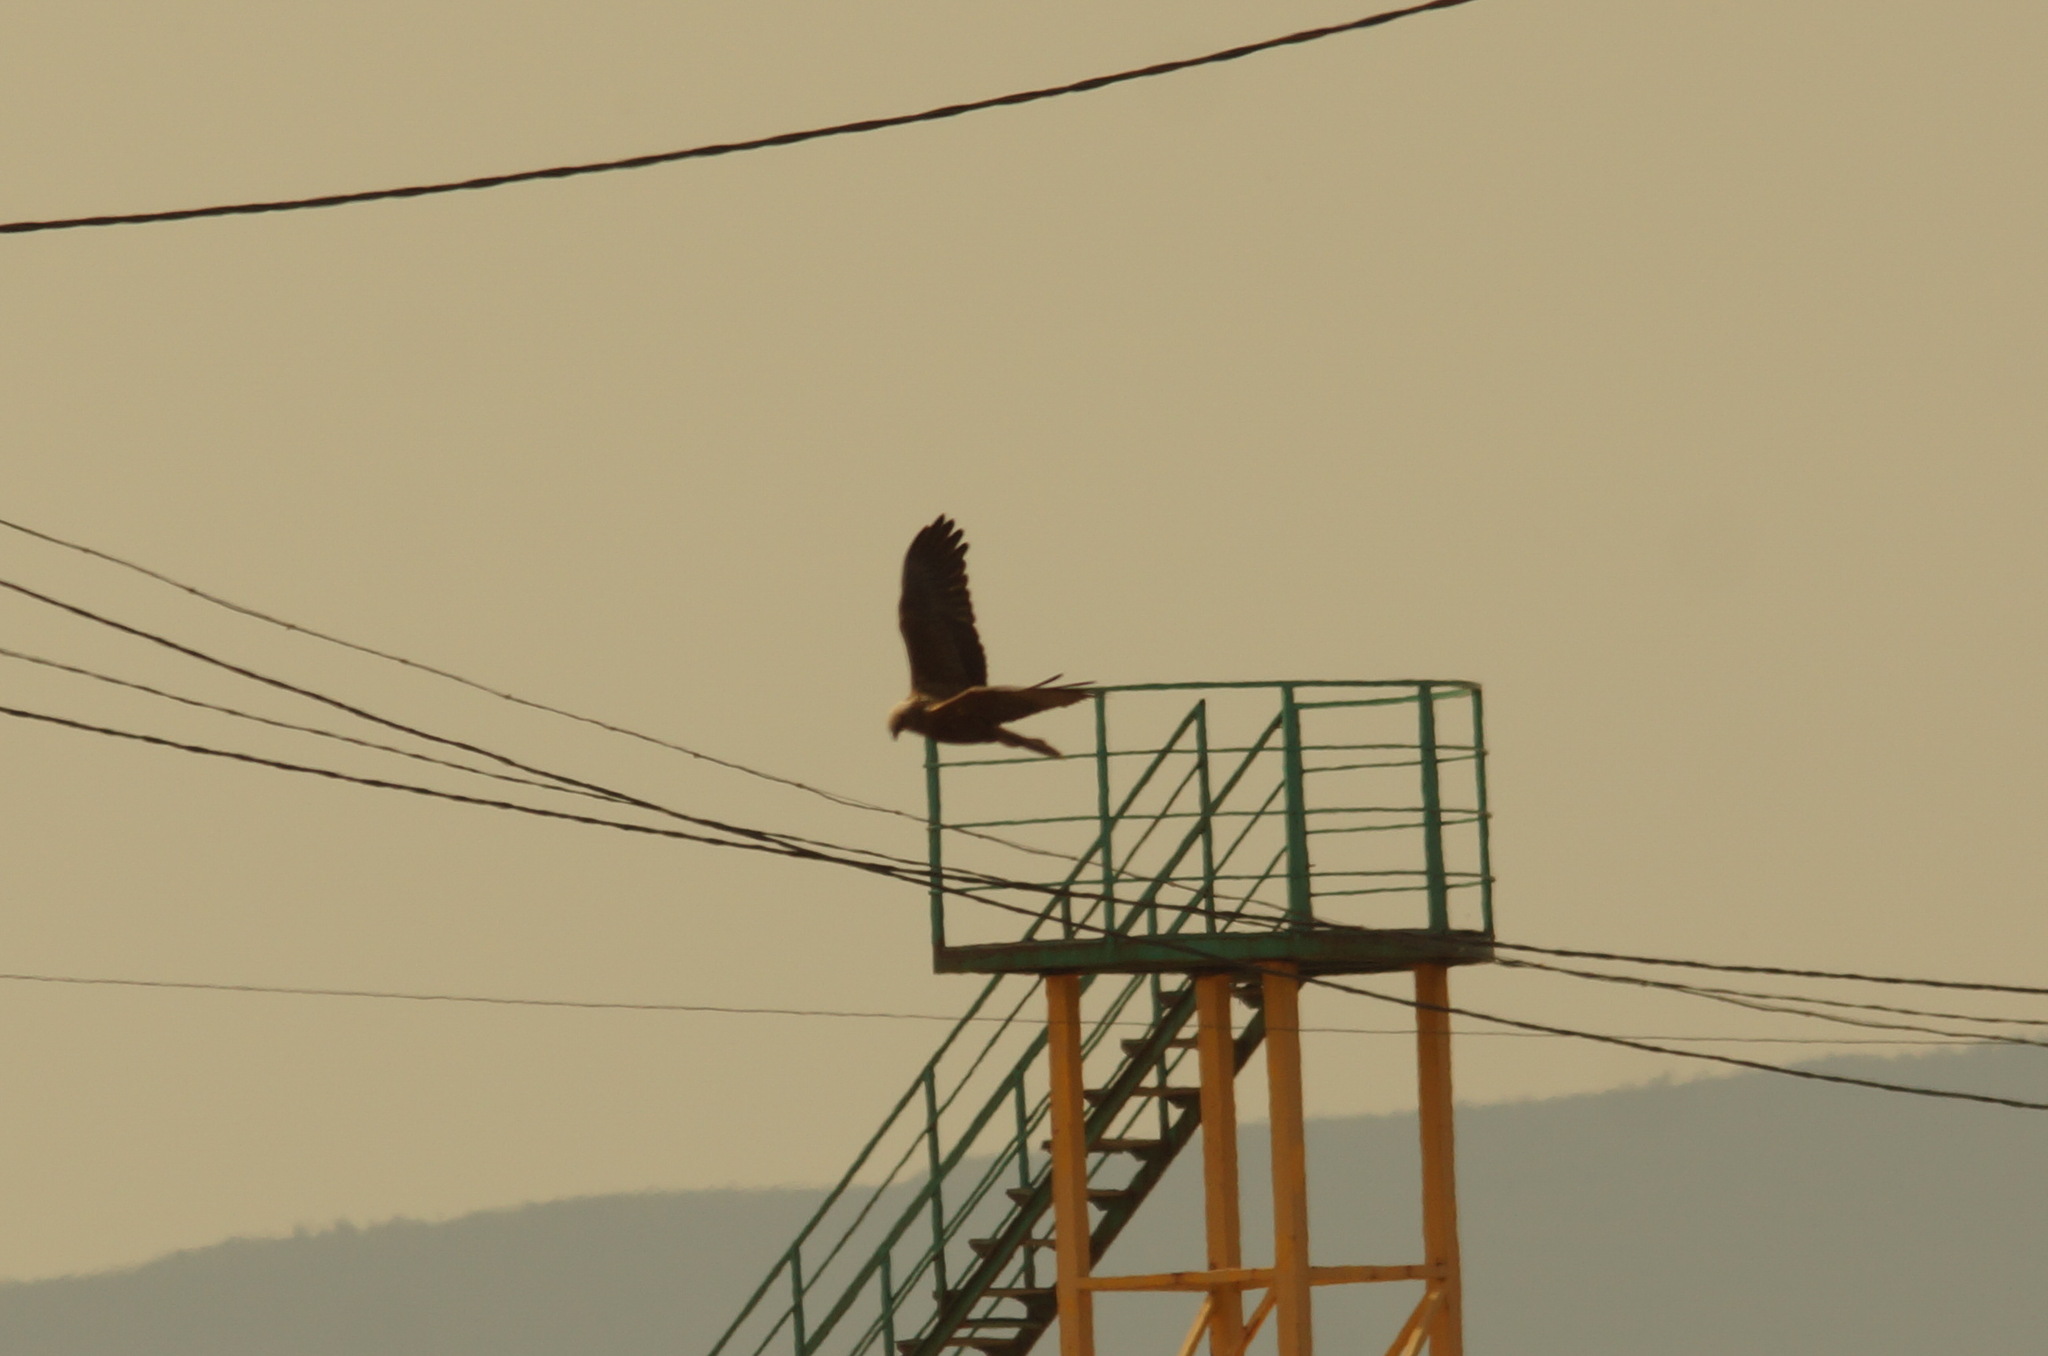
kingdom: Animalia
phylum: Chordata
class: Aves
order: Accipitriformes
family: Accipitridae
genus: Circus
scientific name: Circus aeruginosus
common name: Western marsh harrier
